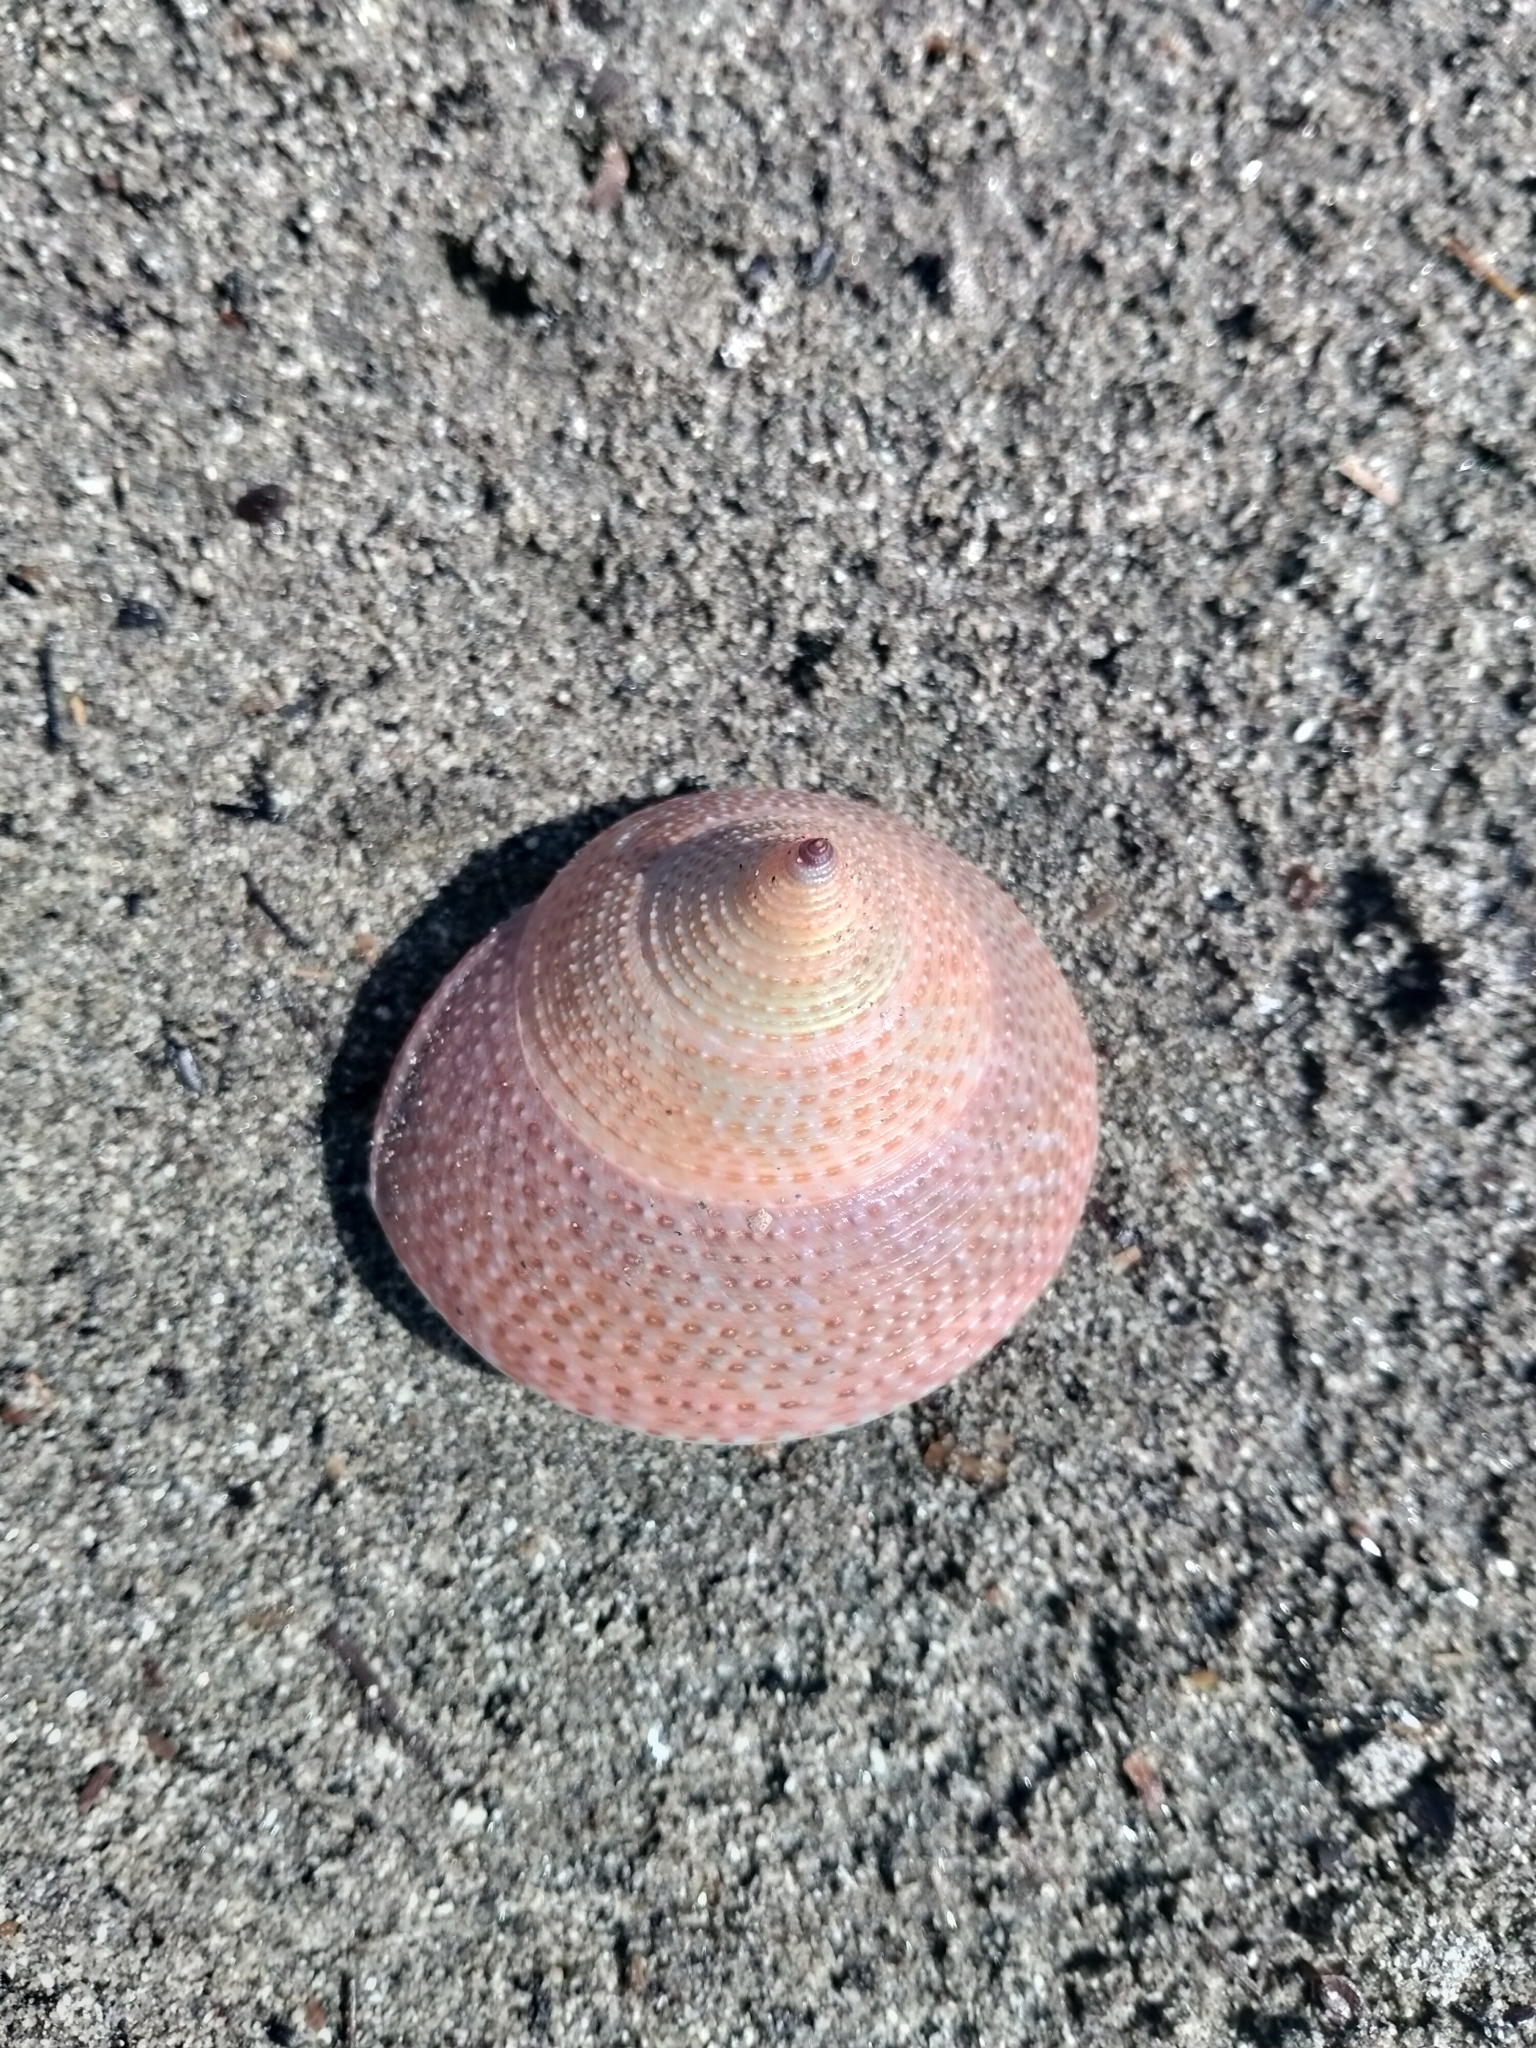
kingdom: Animalia
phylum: Mollusca
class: Gastropoda
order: Trochida
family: Calliostomatidae
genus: Maurea
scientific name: Maurea selecta
